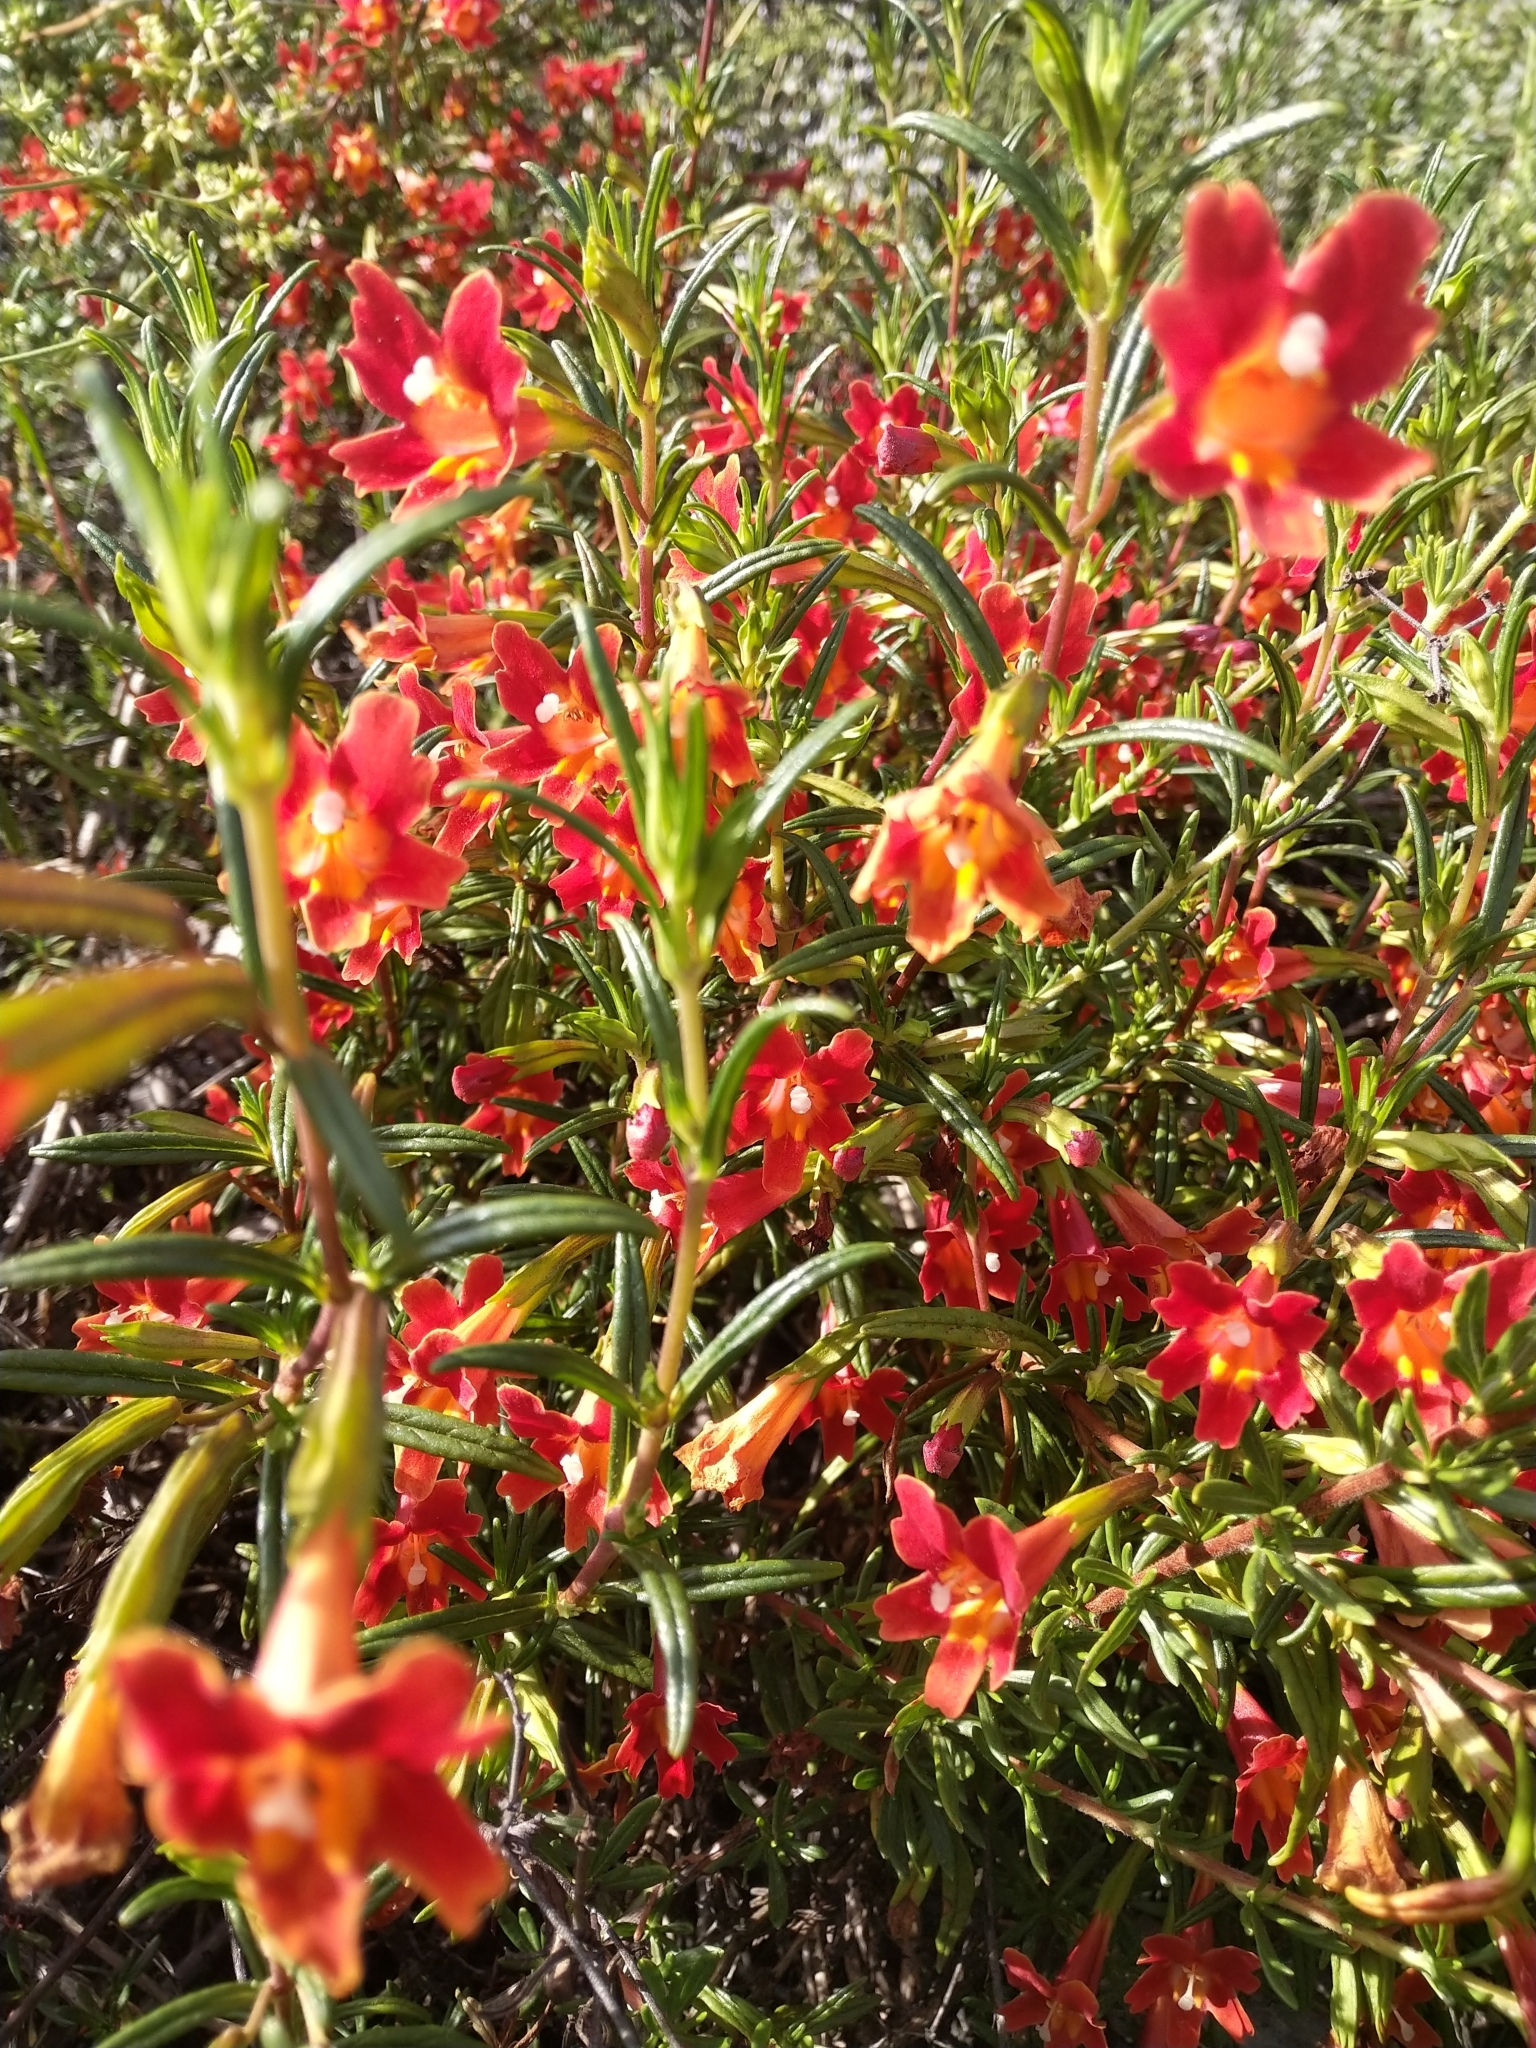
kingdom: Plantae
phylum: Tracheophyta
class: Magnoliopsida
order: Lamiales
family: Phrymaceae
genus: Diplacus
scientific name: Diplacus puniceus
